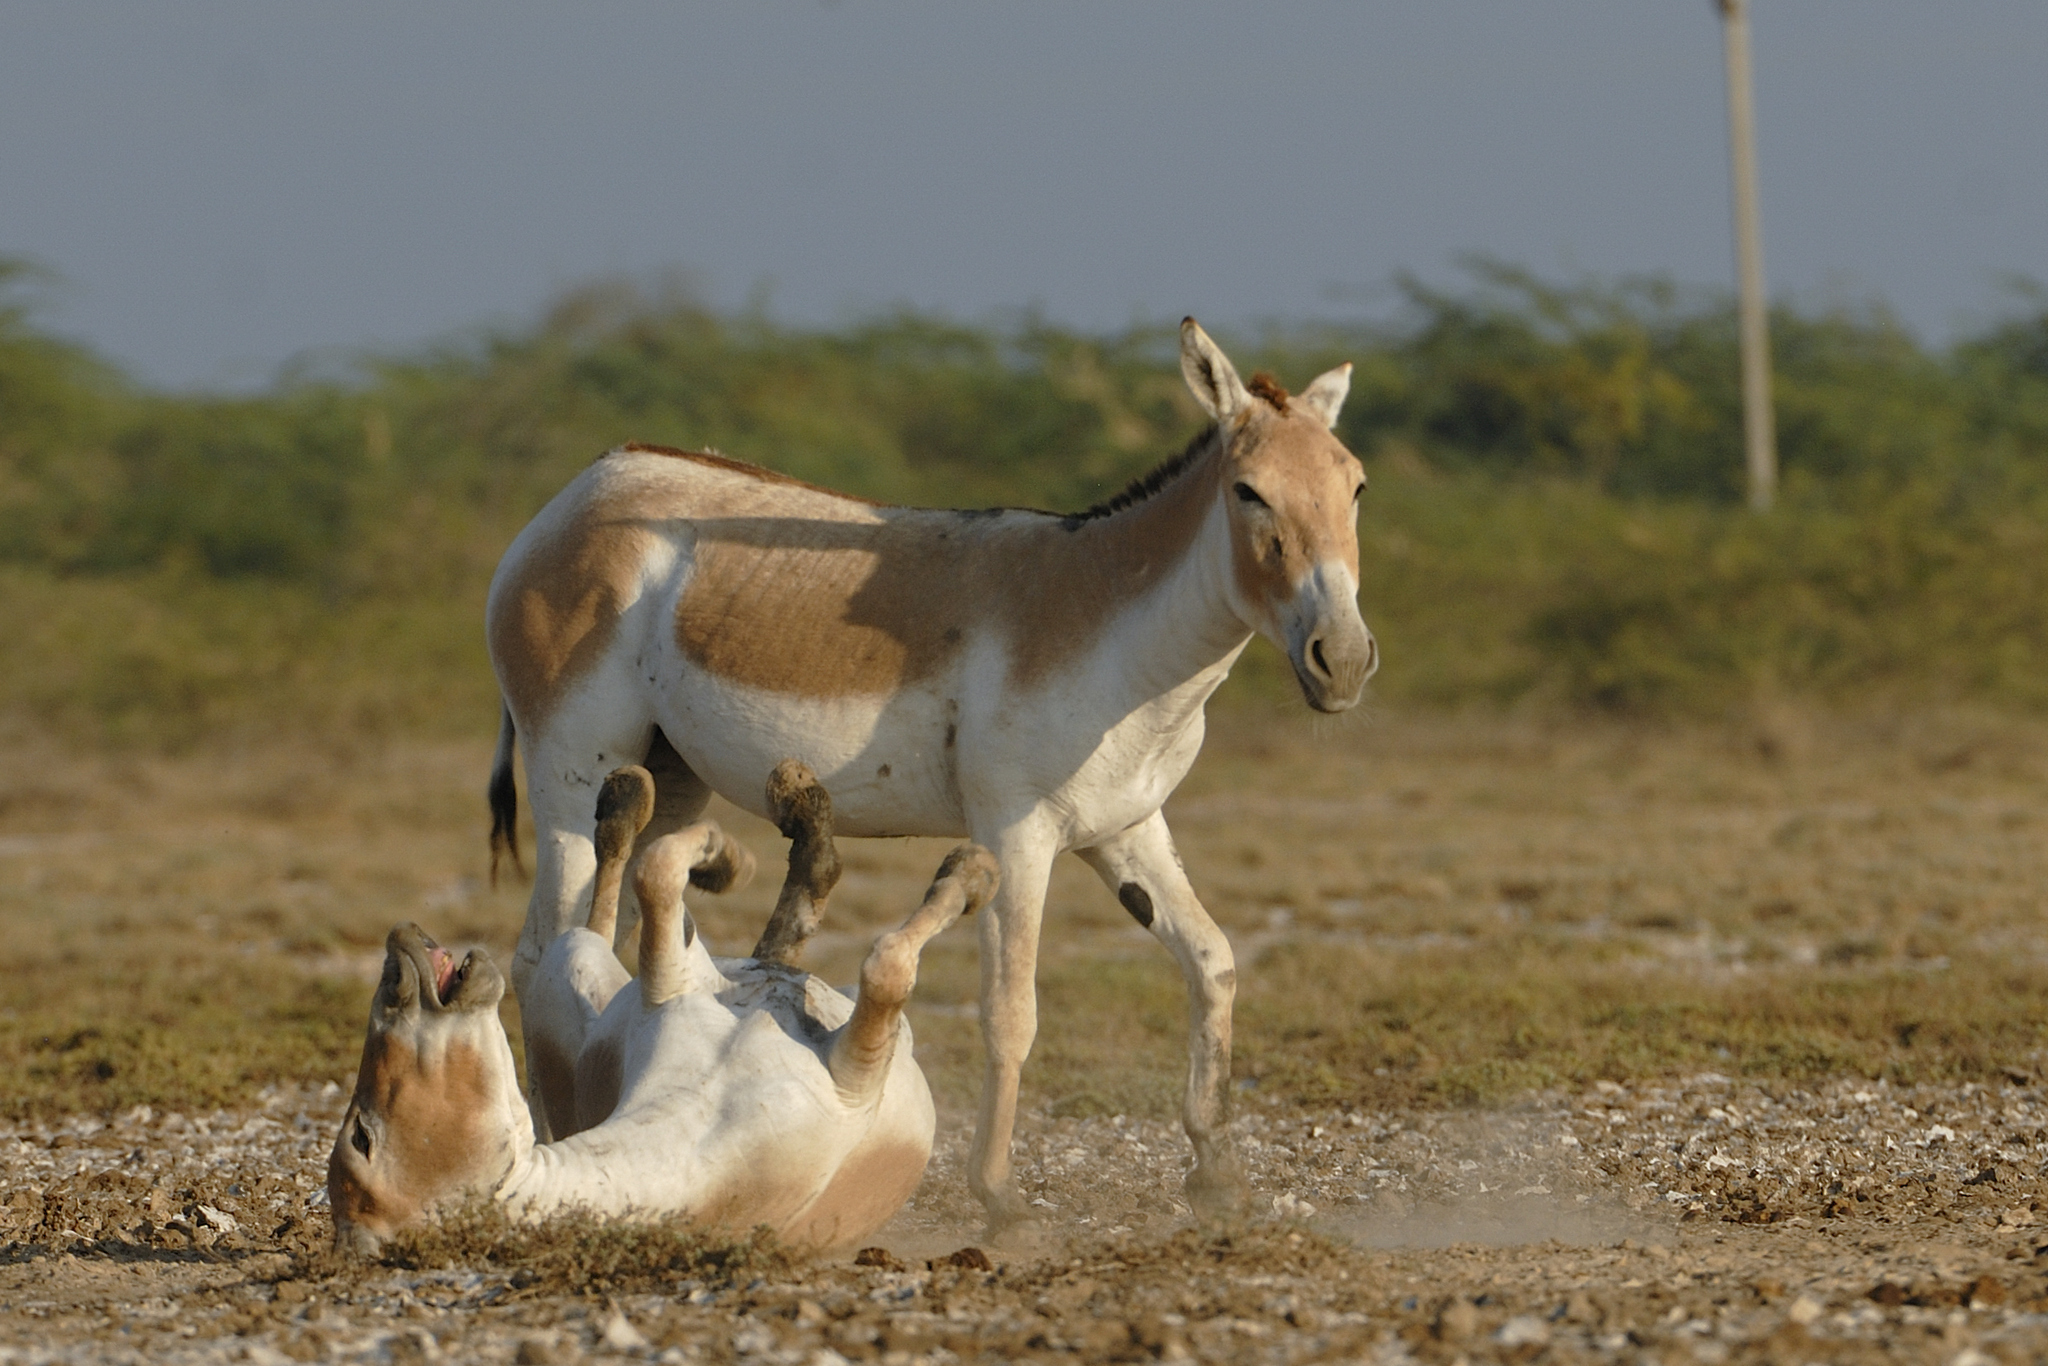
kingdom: Animalia
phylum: Chordata
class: Mammalia
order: Perissodactyla
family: Equidae
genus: Equus
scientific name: Equus khur
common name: Indian wild ass
